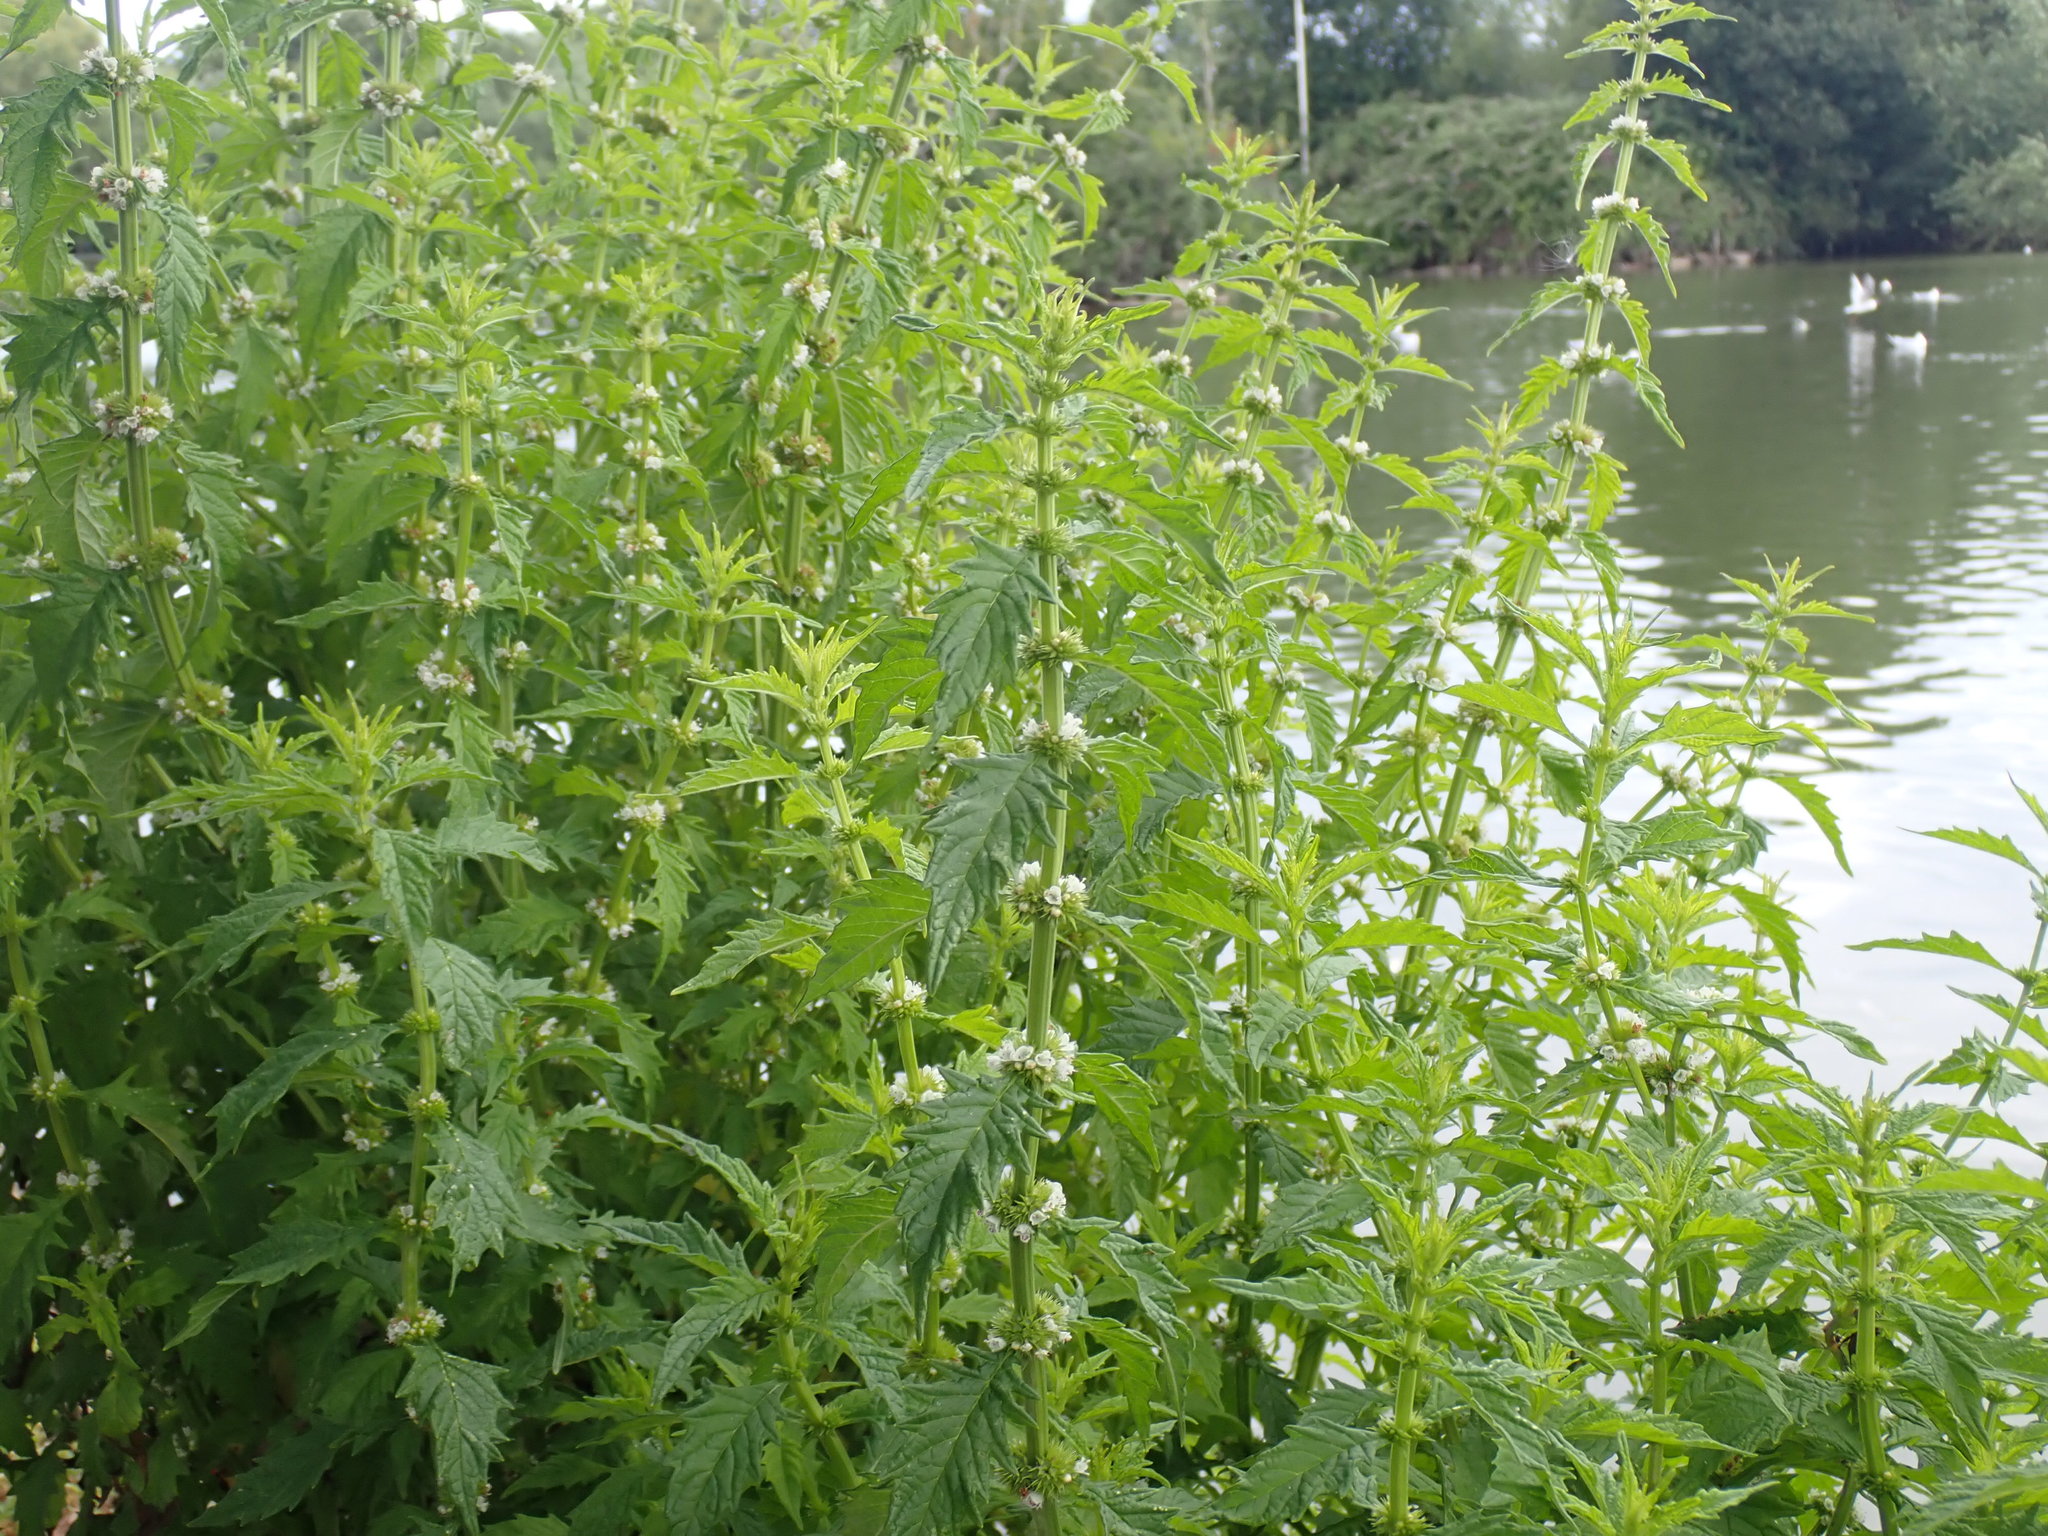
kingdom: Plantae
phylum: Tracheophyta
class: Magnoliopsida
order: Lamiales
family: Lamiaceae
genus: Lycopus
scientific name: Lycopus europaeus
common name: European bugleweed
